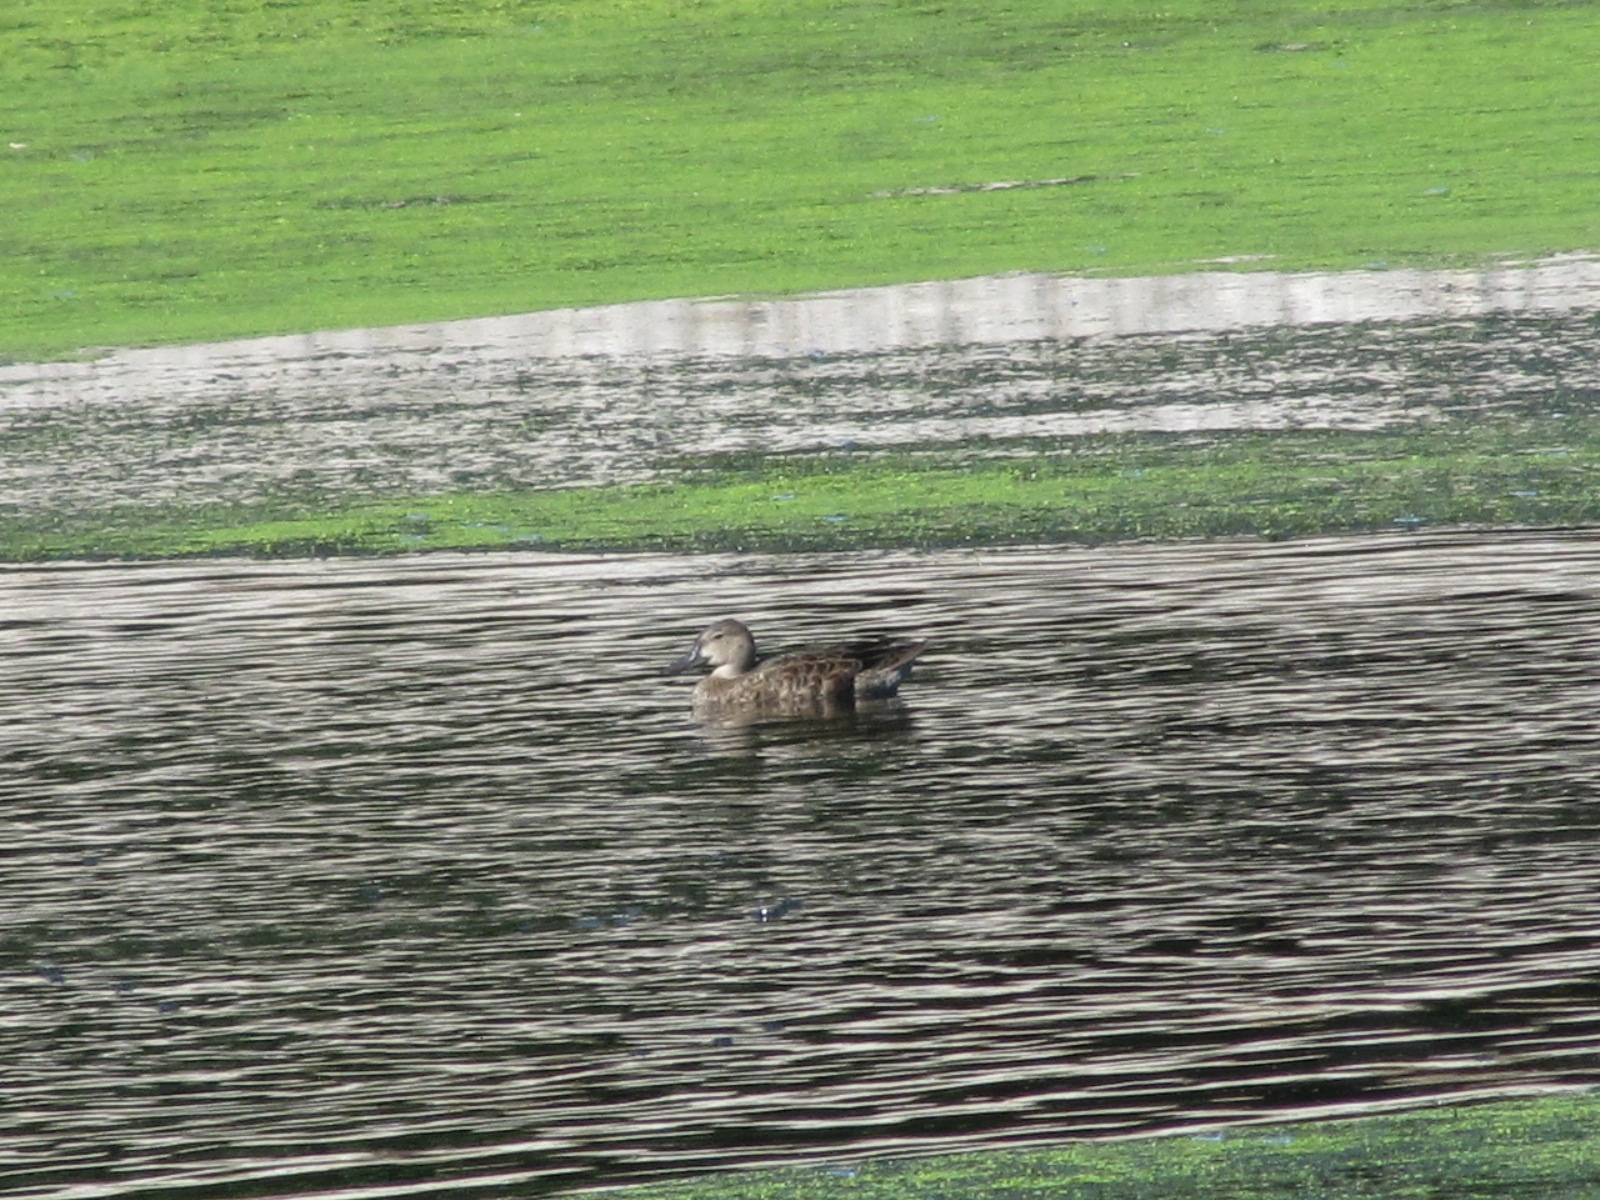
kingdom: Animalia
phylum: Chordata
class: Aves
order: Anseriformes
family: Anatidae
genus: Spatula
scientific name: Spatula discors
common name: Blue-winged teal
